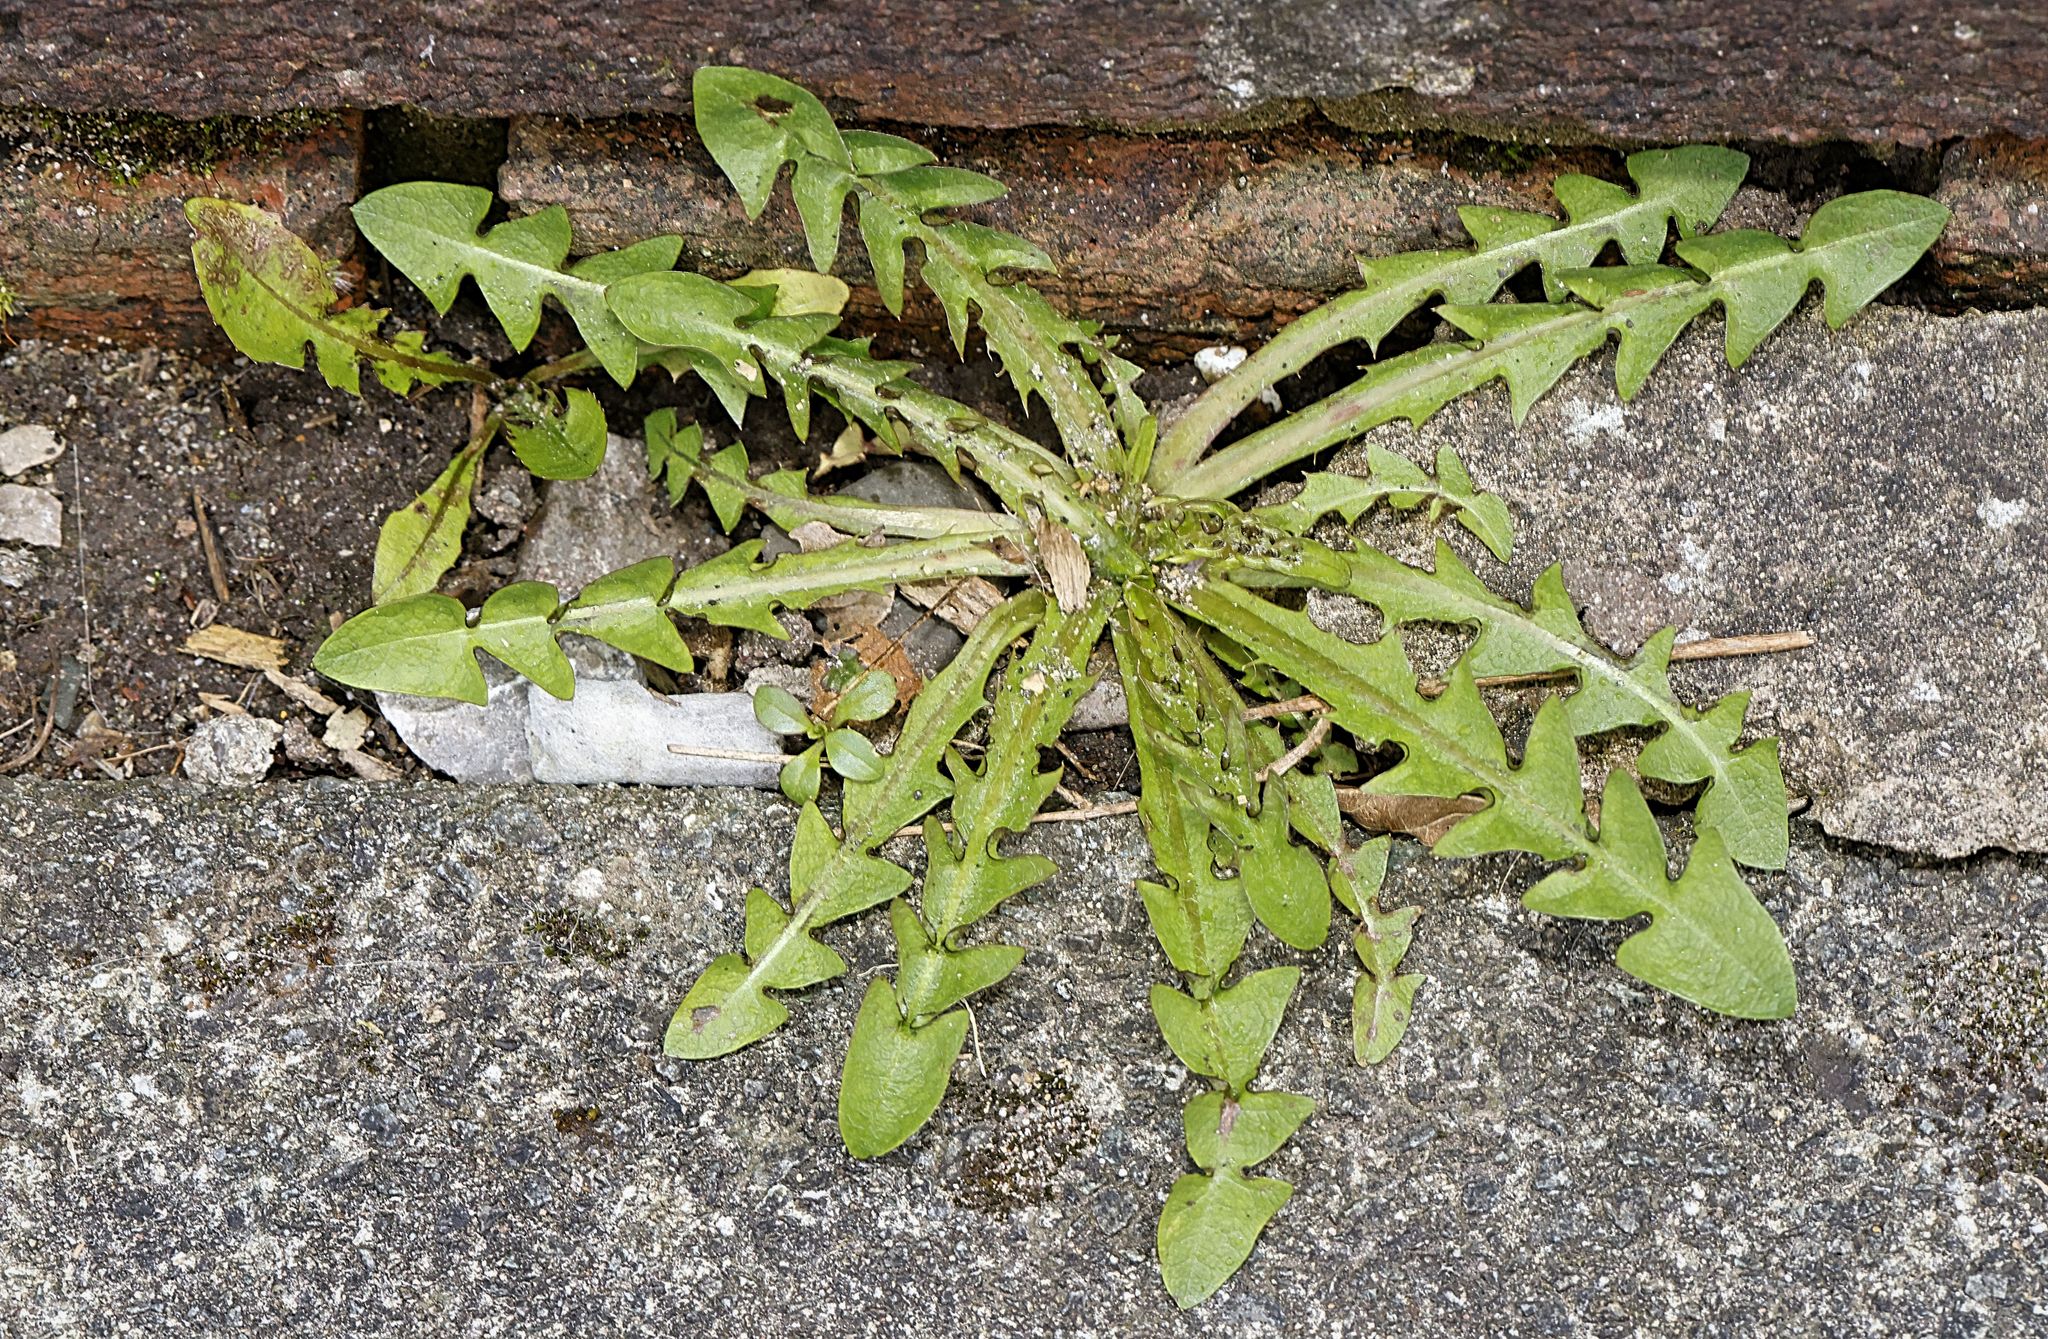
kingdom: Plantae
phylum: Tracheophyta
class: Magnoliopsida
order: Asterales
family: Asteraceae
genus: Taraxacum
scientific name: Taraxacum officinale
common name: Common dandelion
